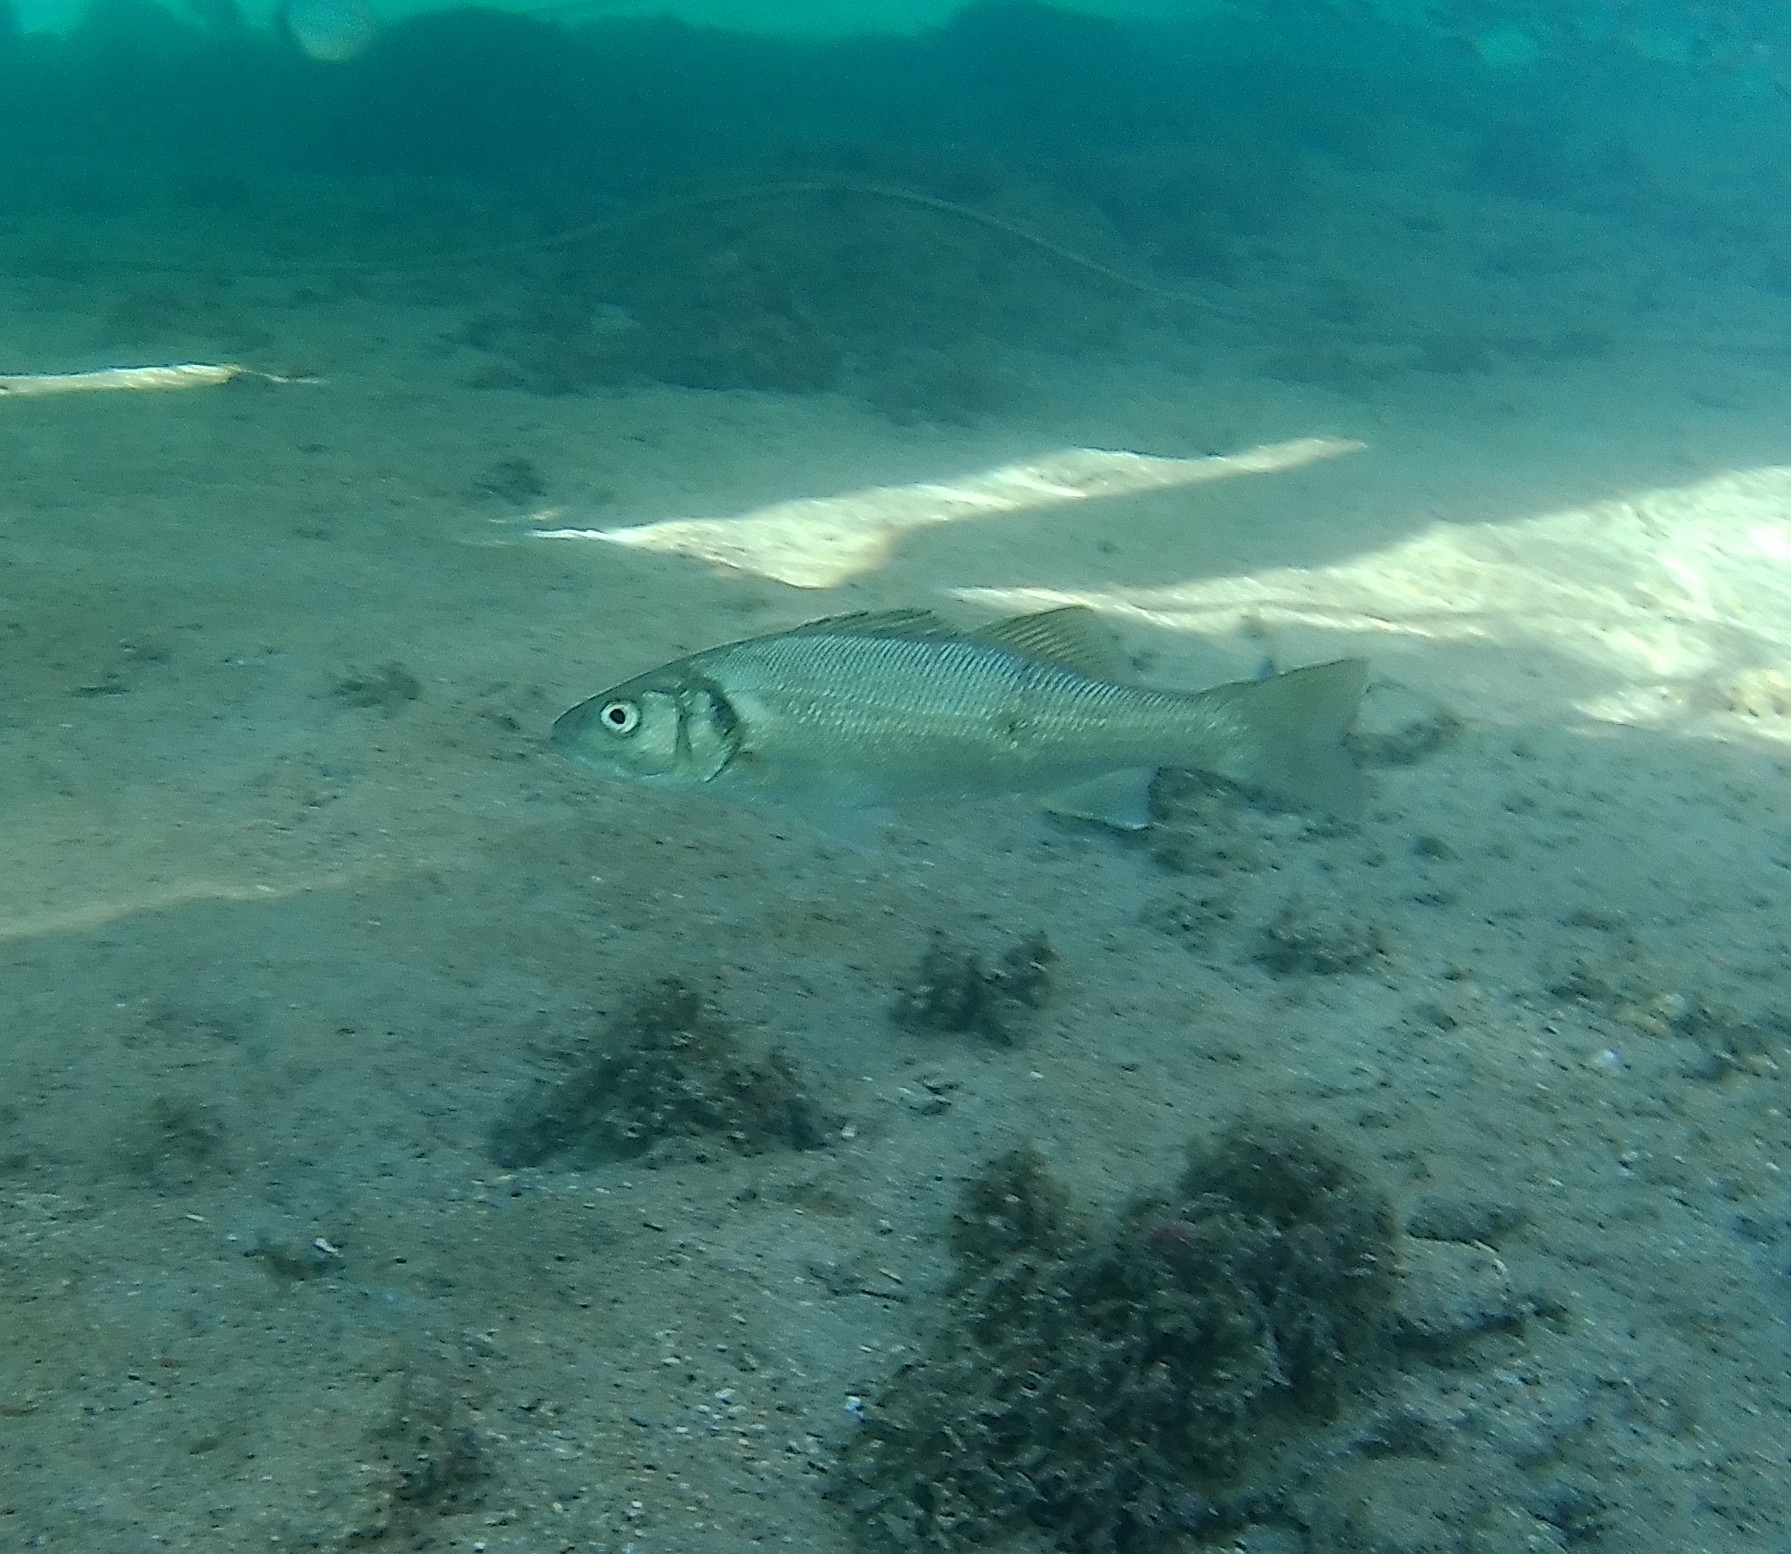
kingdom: Animalia
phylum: Chordata
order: Perciformes
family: Moronidae
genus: Dicentrarchus
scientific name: Dicentrarchus labrax
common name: European seabass
